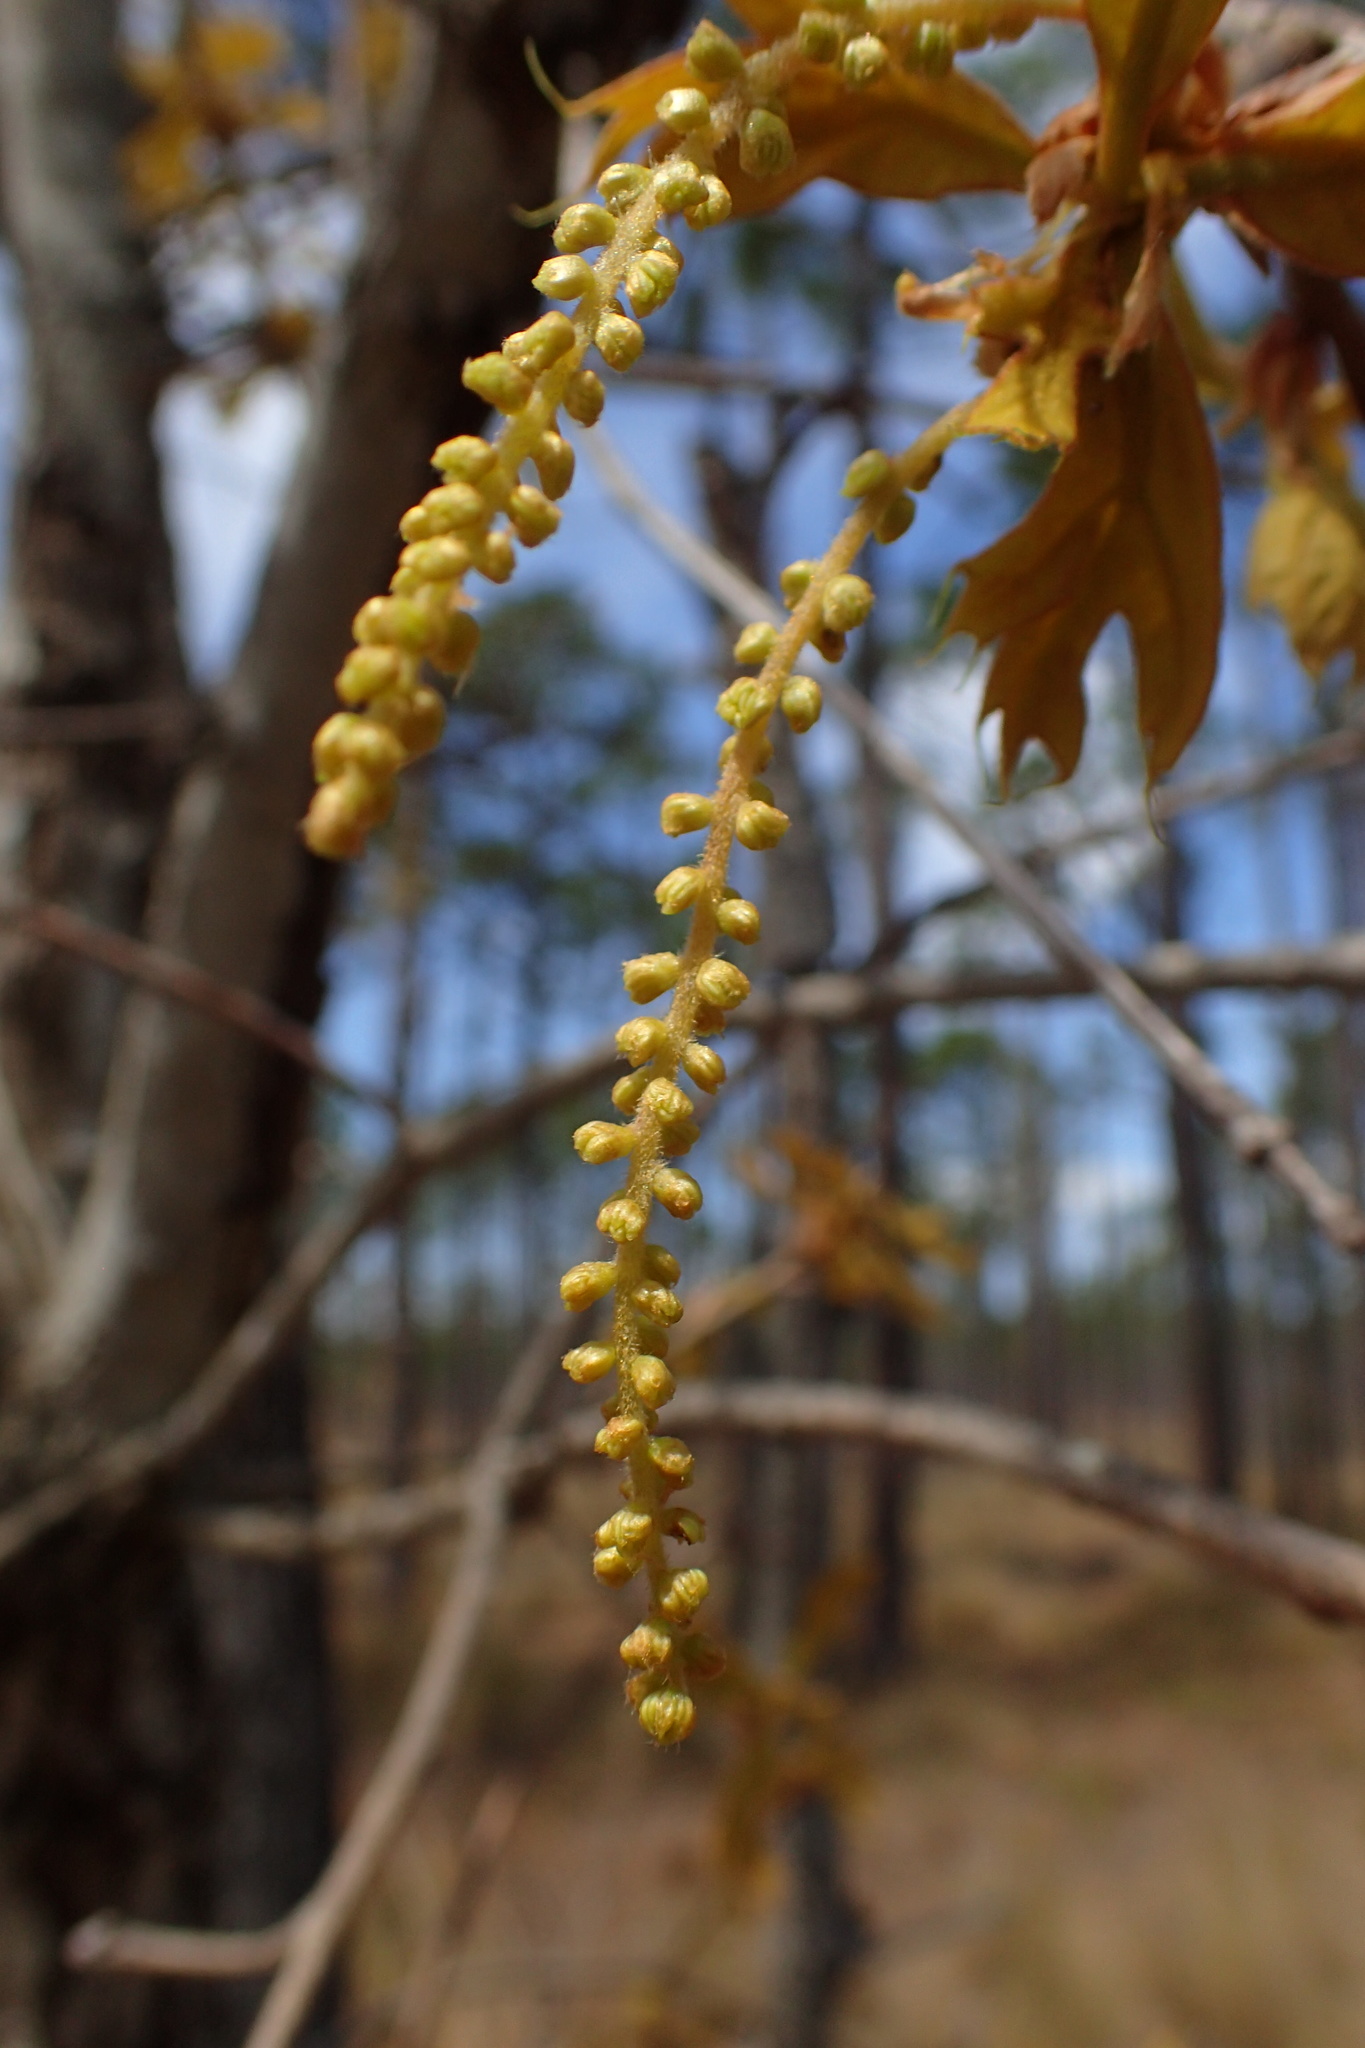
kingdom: Plantae
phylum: Tracheophyta
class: Magnoliopsida
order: Fagales
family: Fagaceae
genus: Quercus
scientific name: Quercus laevis
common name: Turkey oak
